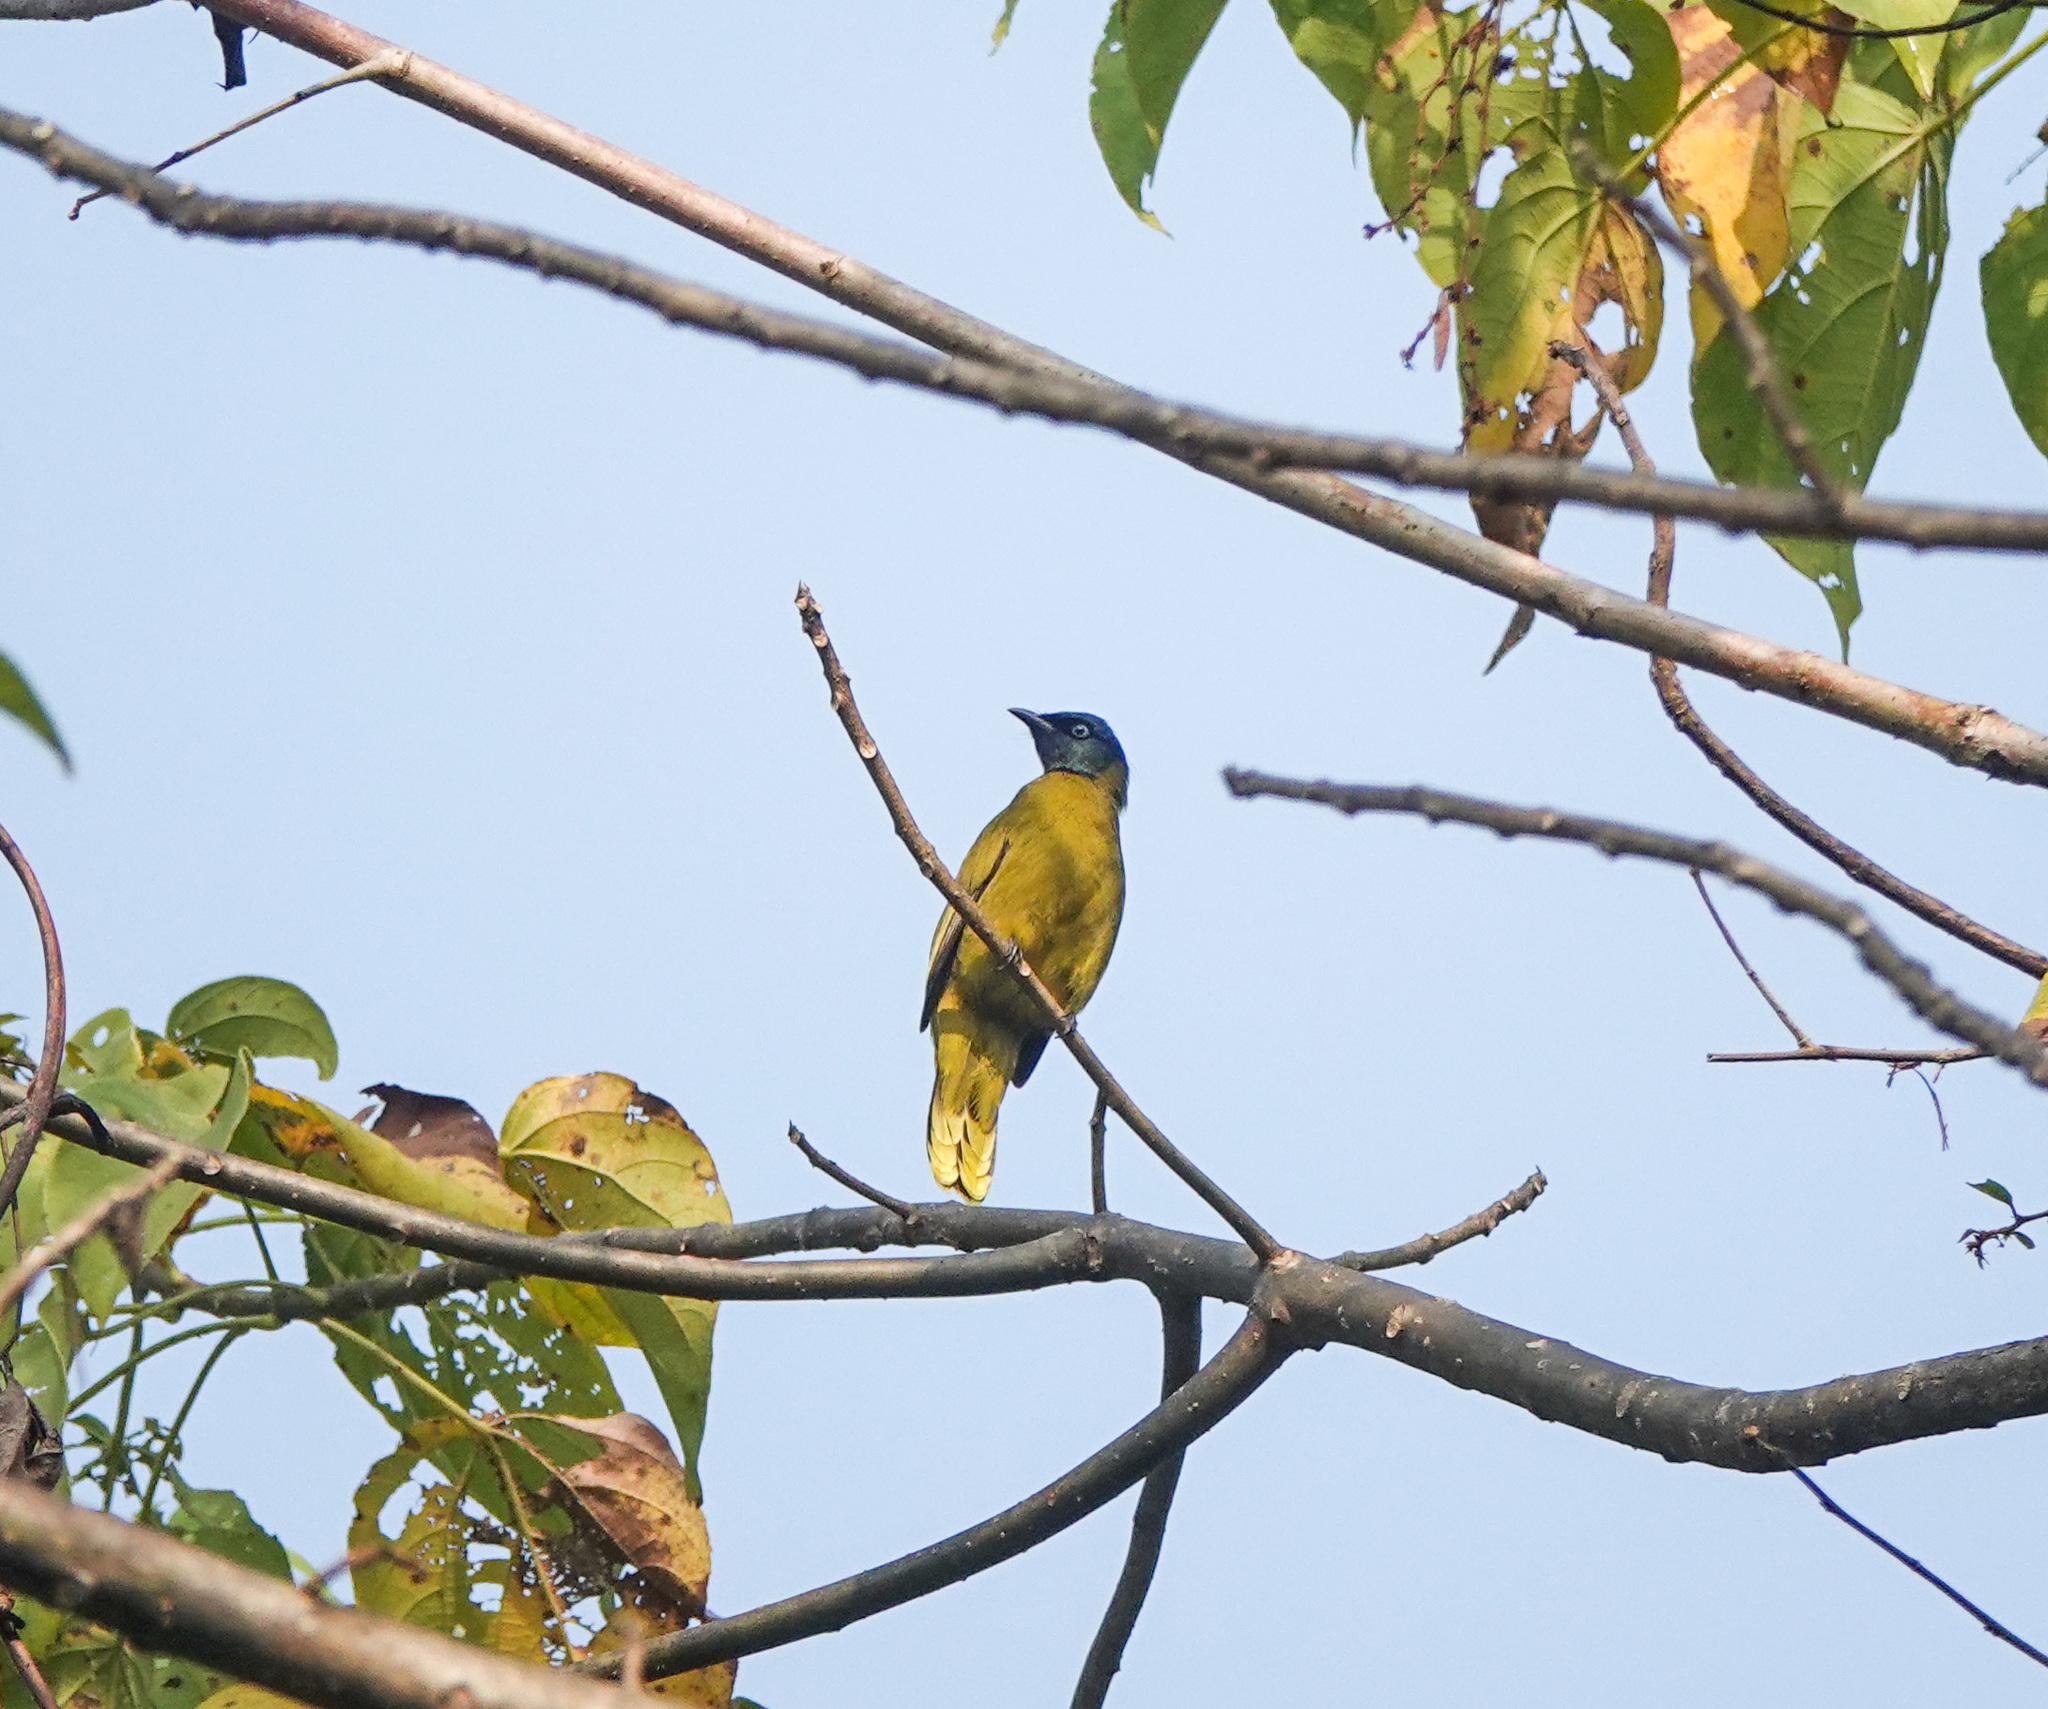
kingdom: Animalia
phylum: Chordata
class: Aves
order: Passeriformes
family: Pycnonotidae
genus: Microtarsus
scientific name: Microtarsus
